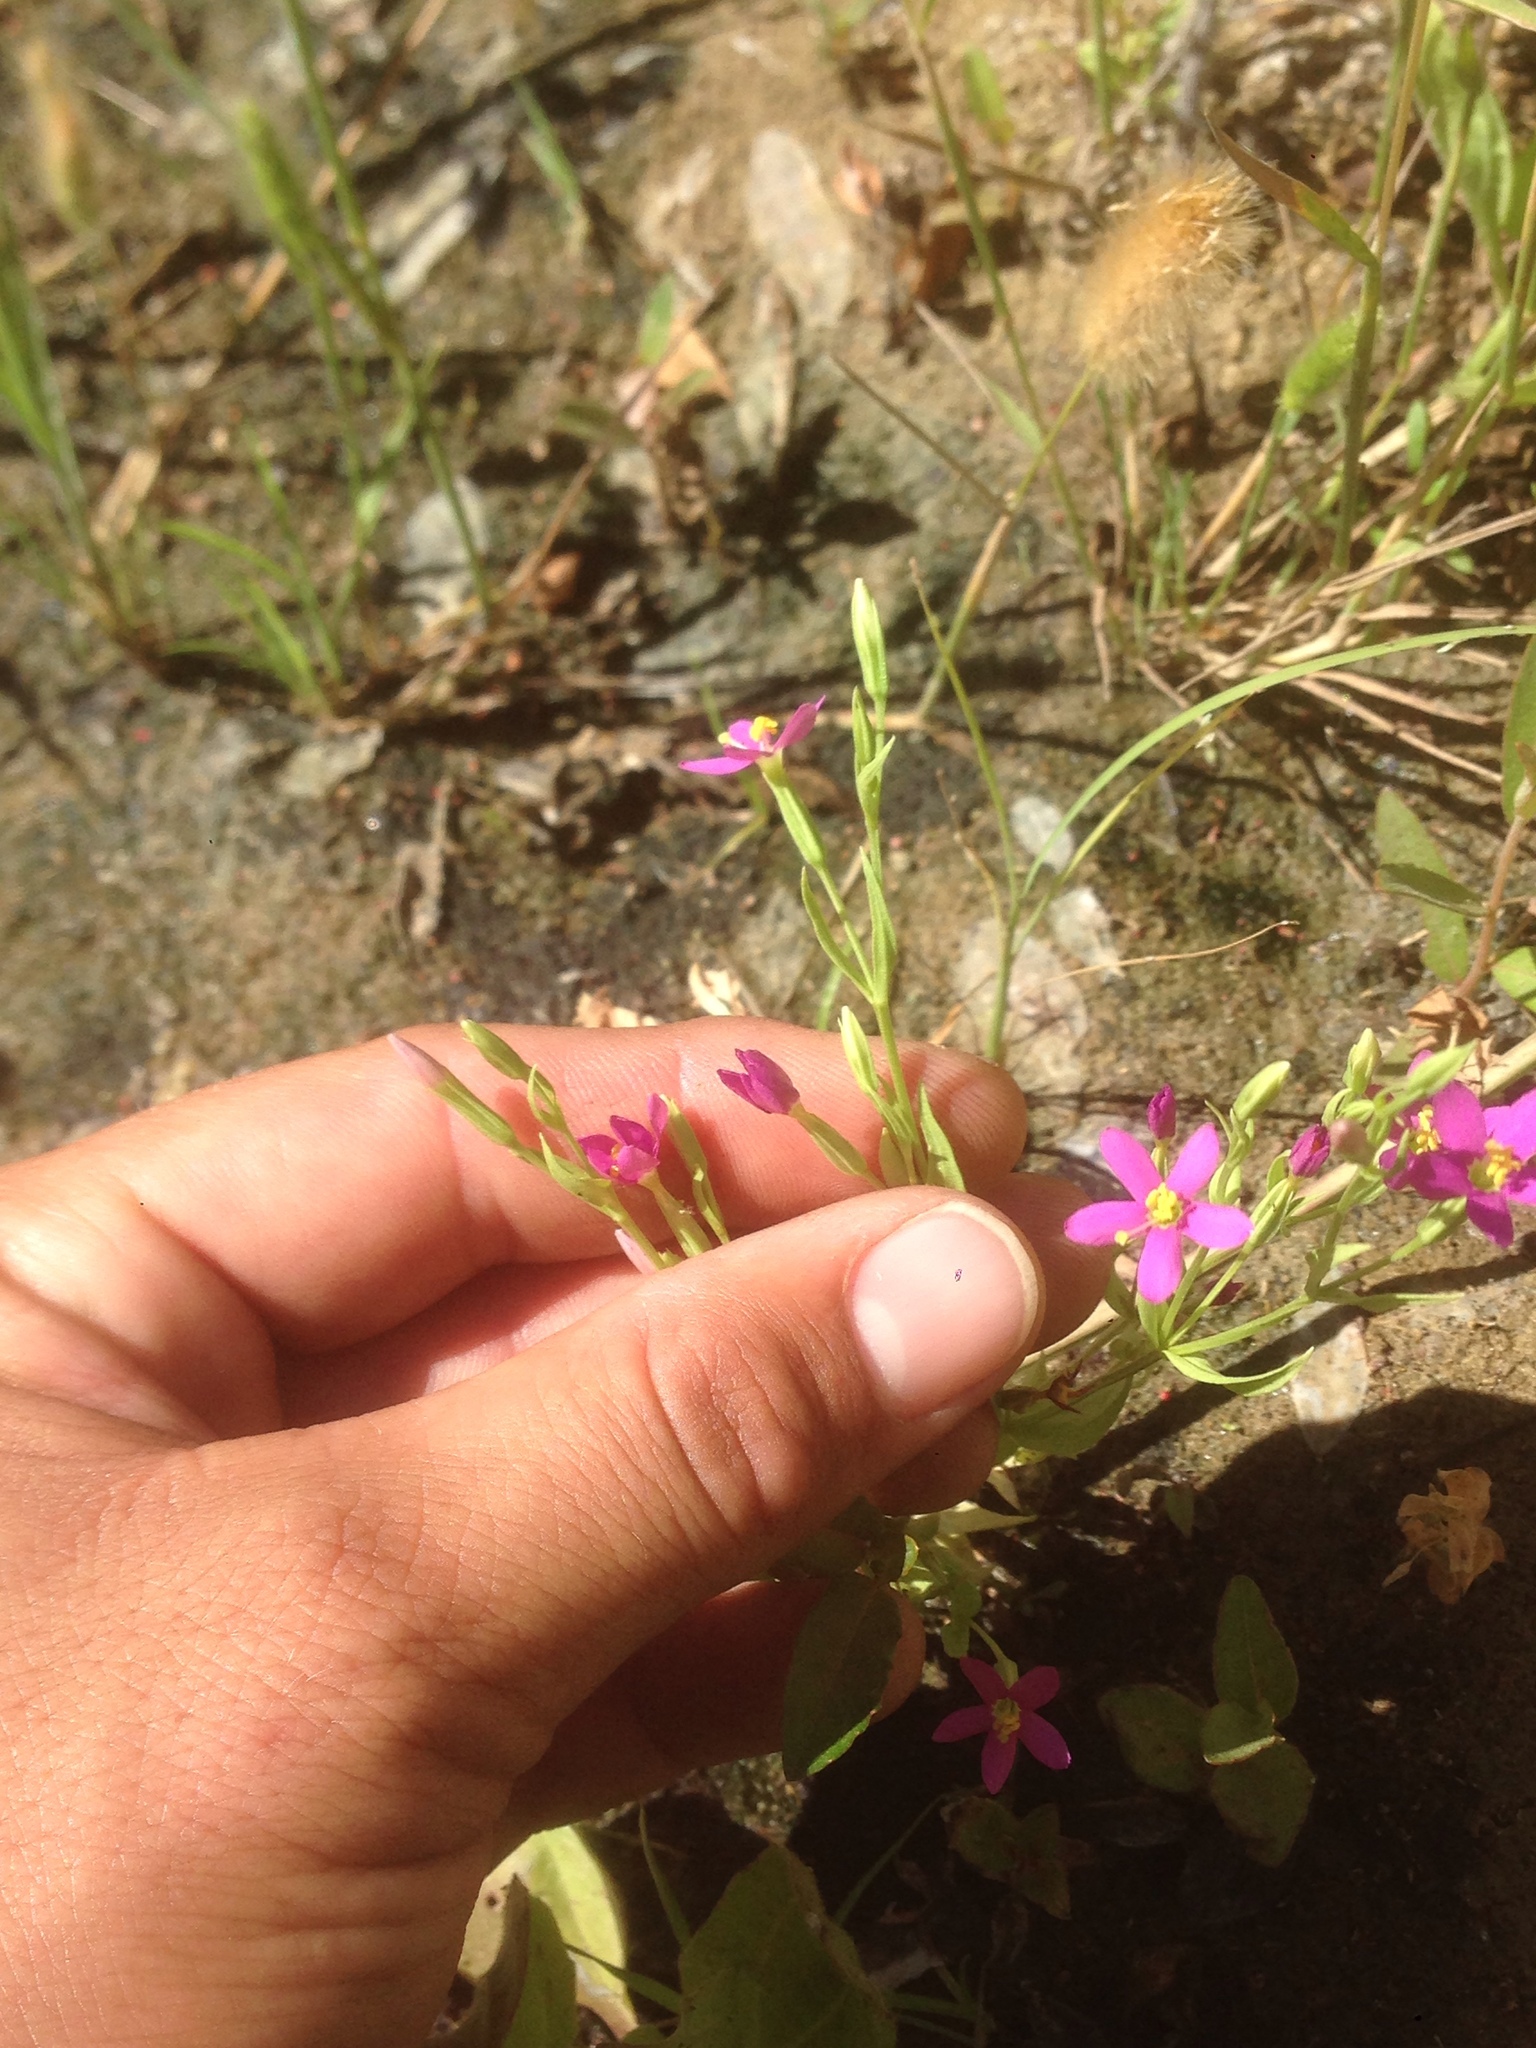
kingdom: Plantae
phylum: Tracheophyta
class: Magnoliopsida
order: Gentianales
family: Gentianaceae
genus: Zeltnera
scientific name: Zeltnera exaltata
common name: Great basin centaury
